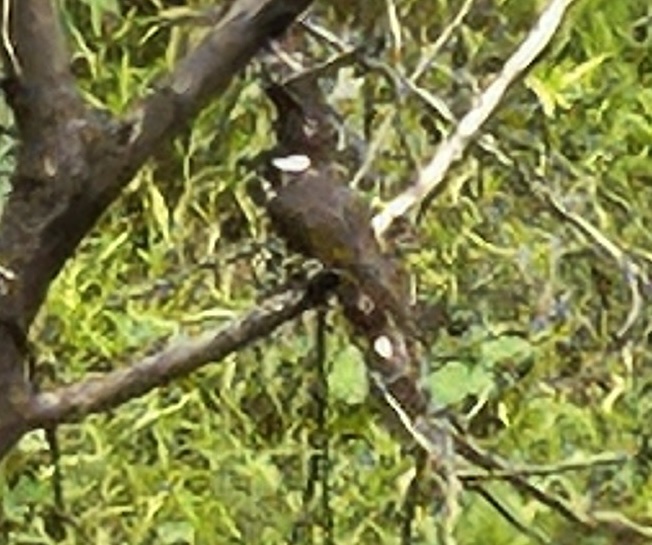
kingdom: Animalia
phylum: Chordata
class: Aves
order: Passeriformes
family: Pycnonotidae
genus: Pycnonotus
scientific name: Pycnonotus sinensis
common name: Light-vented bulbul
